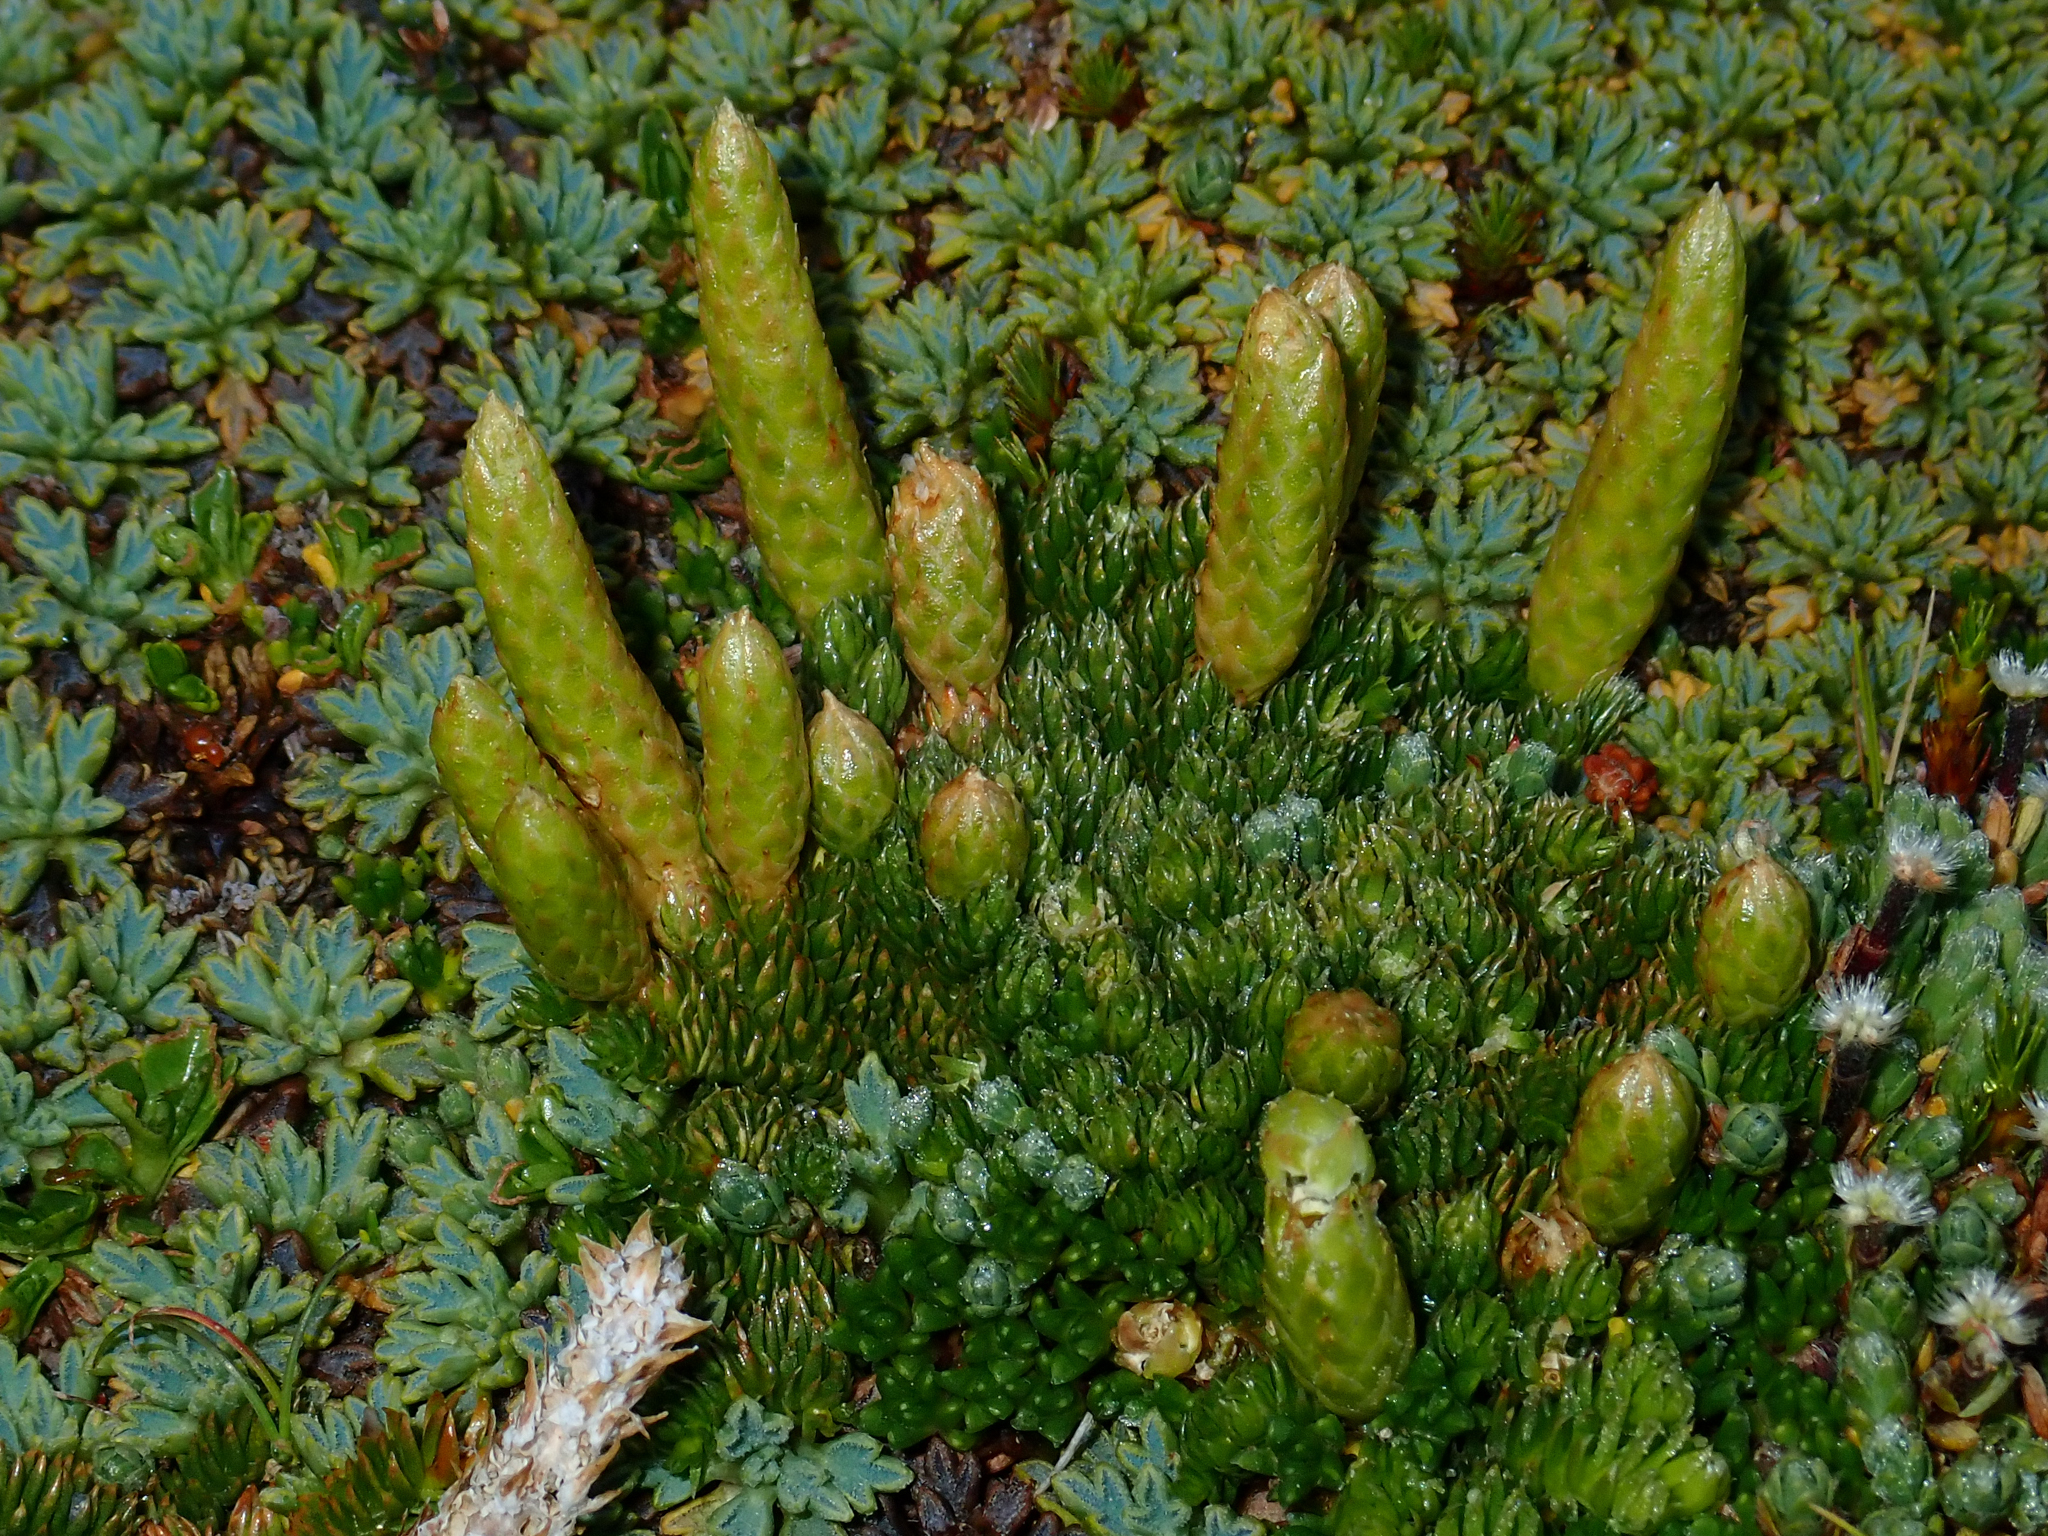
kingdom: Plantae
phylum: Tracheophyta
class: Lycopodiopsida
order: Lycopodiales
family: Lycopodiaceae
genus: Austrolycopodium
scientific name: Austrolycopodium alboffii
